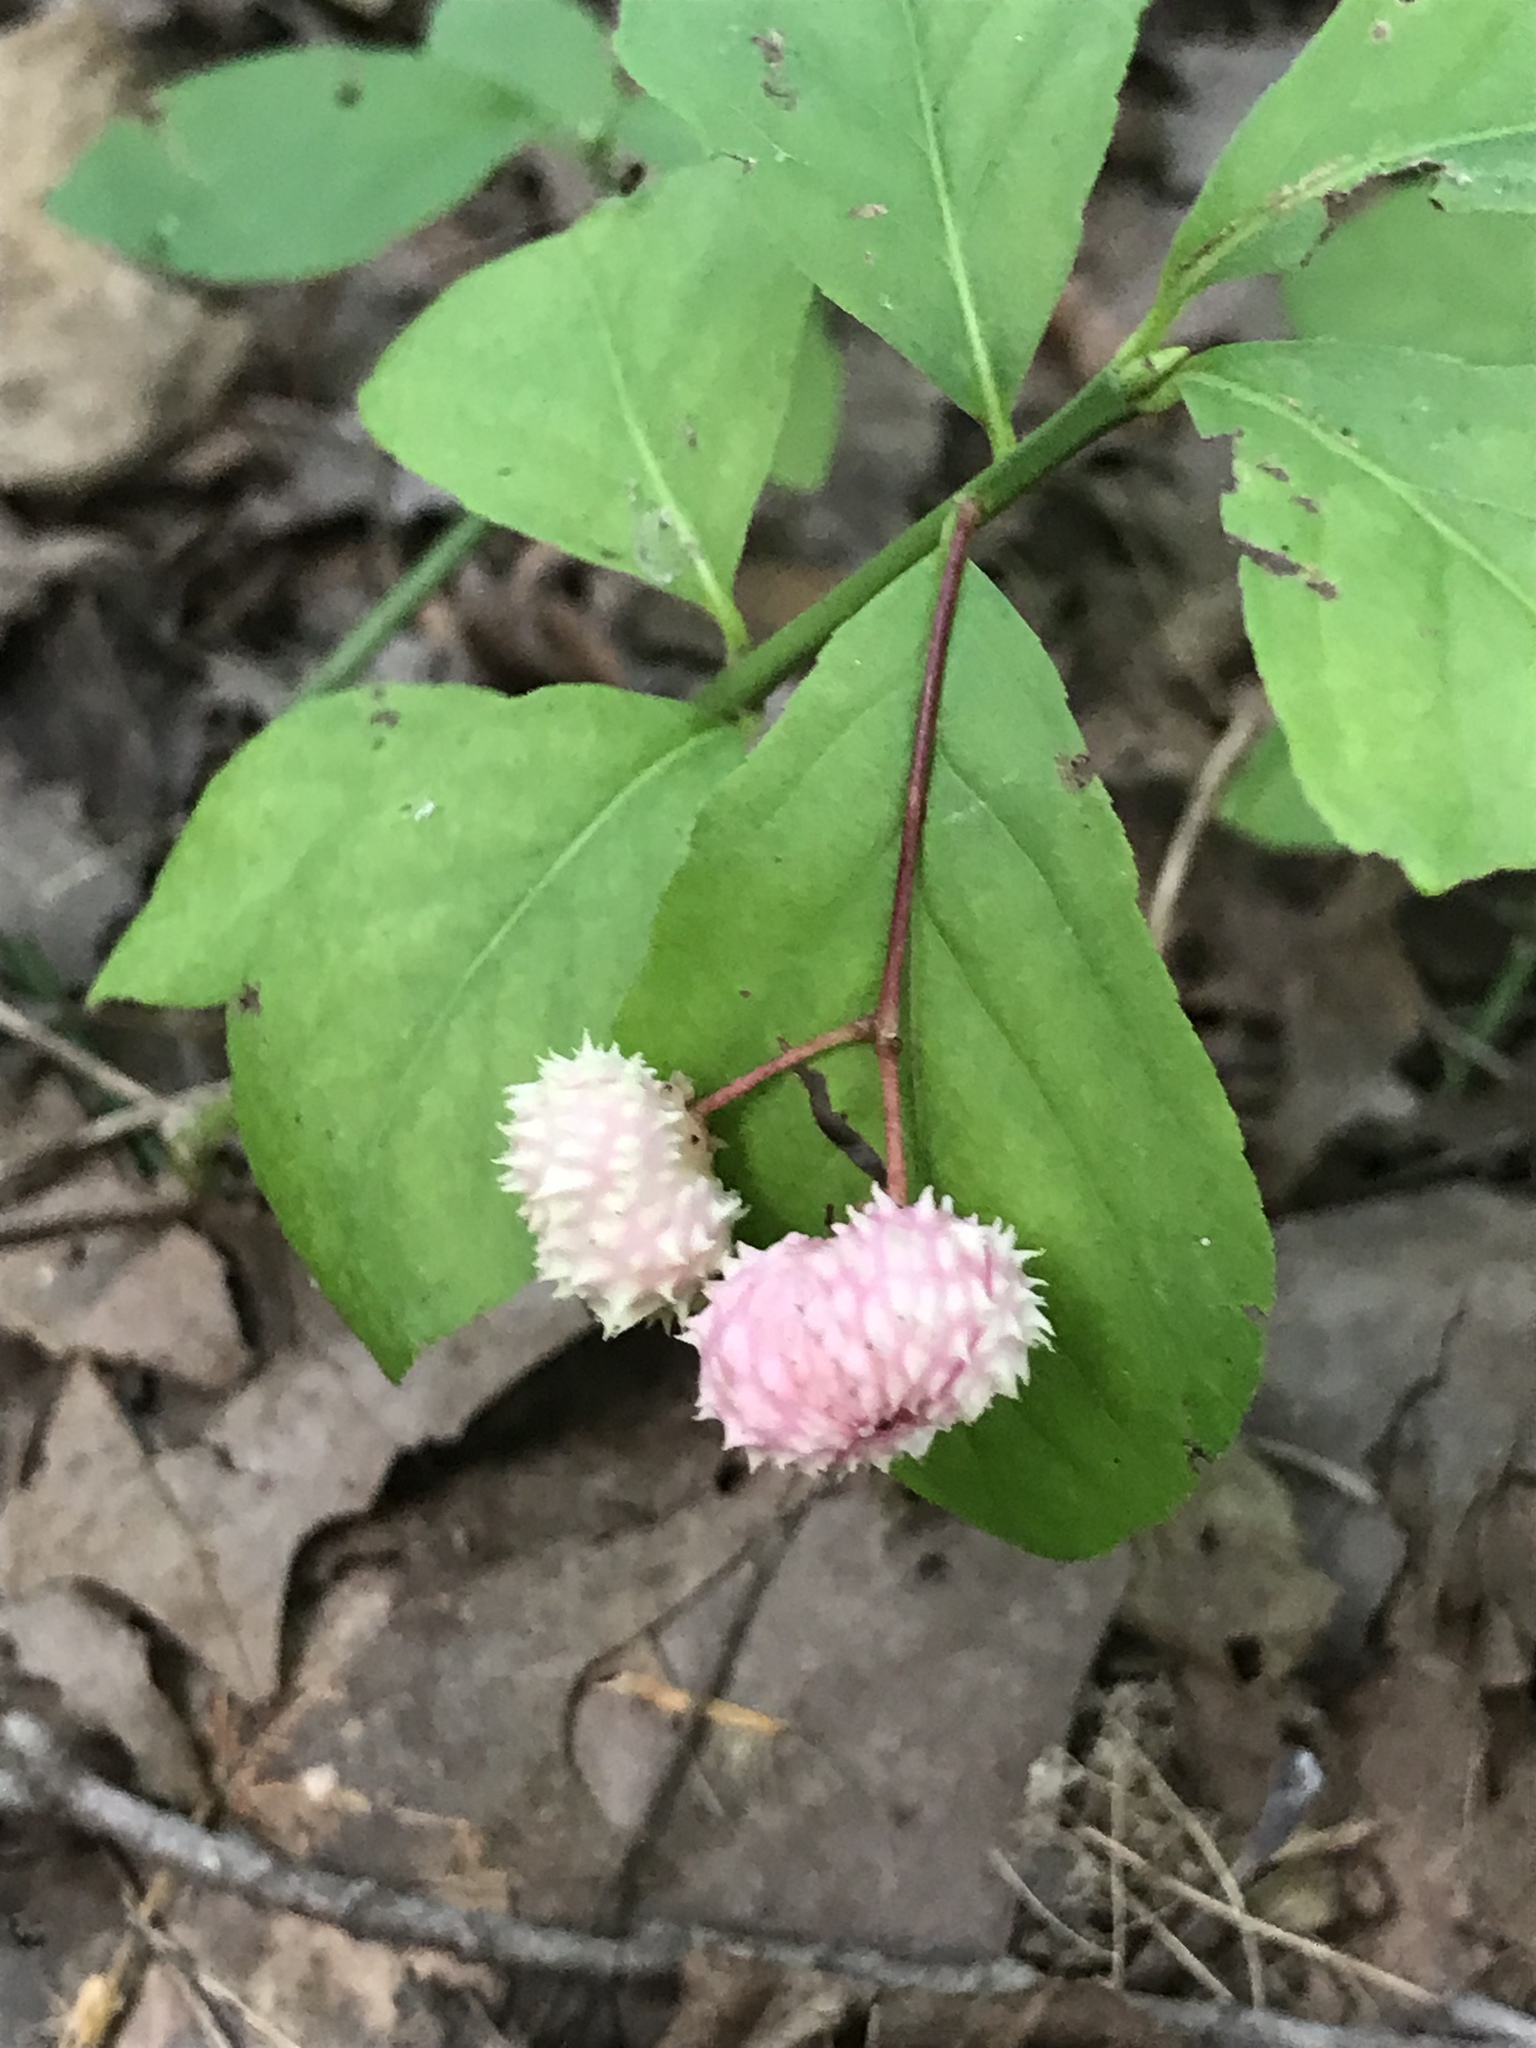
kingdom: Plantae
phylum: Tracheophyta
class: Magnoliopsida
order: Celastrales
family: Celastraceae
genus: Euonymus
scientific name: Euonymus obovatus
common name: Running strawberry-bush
